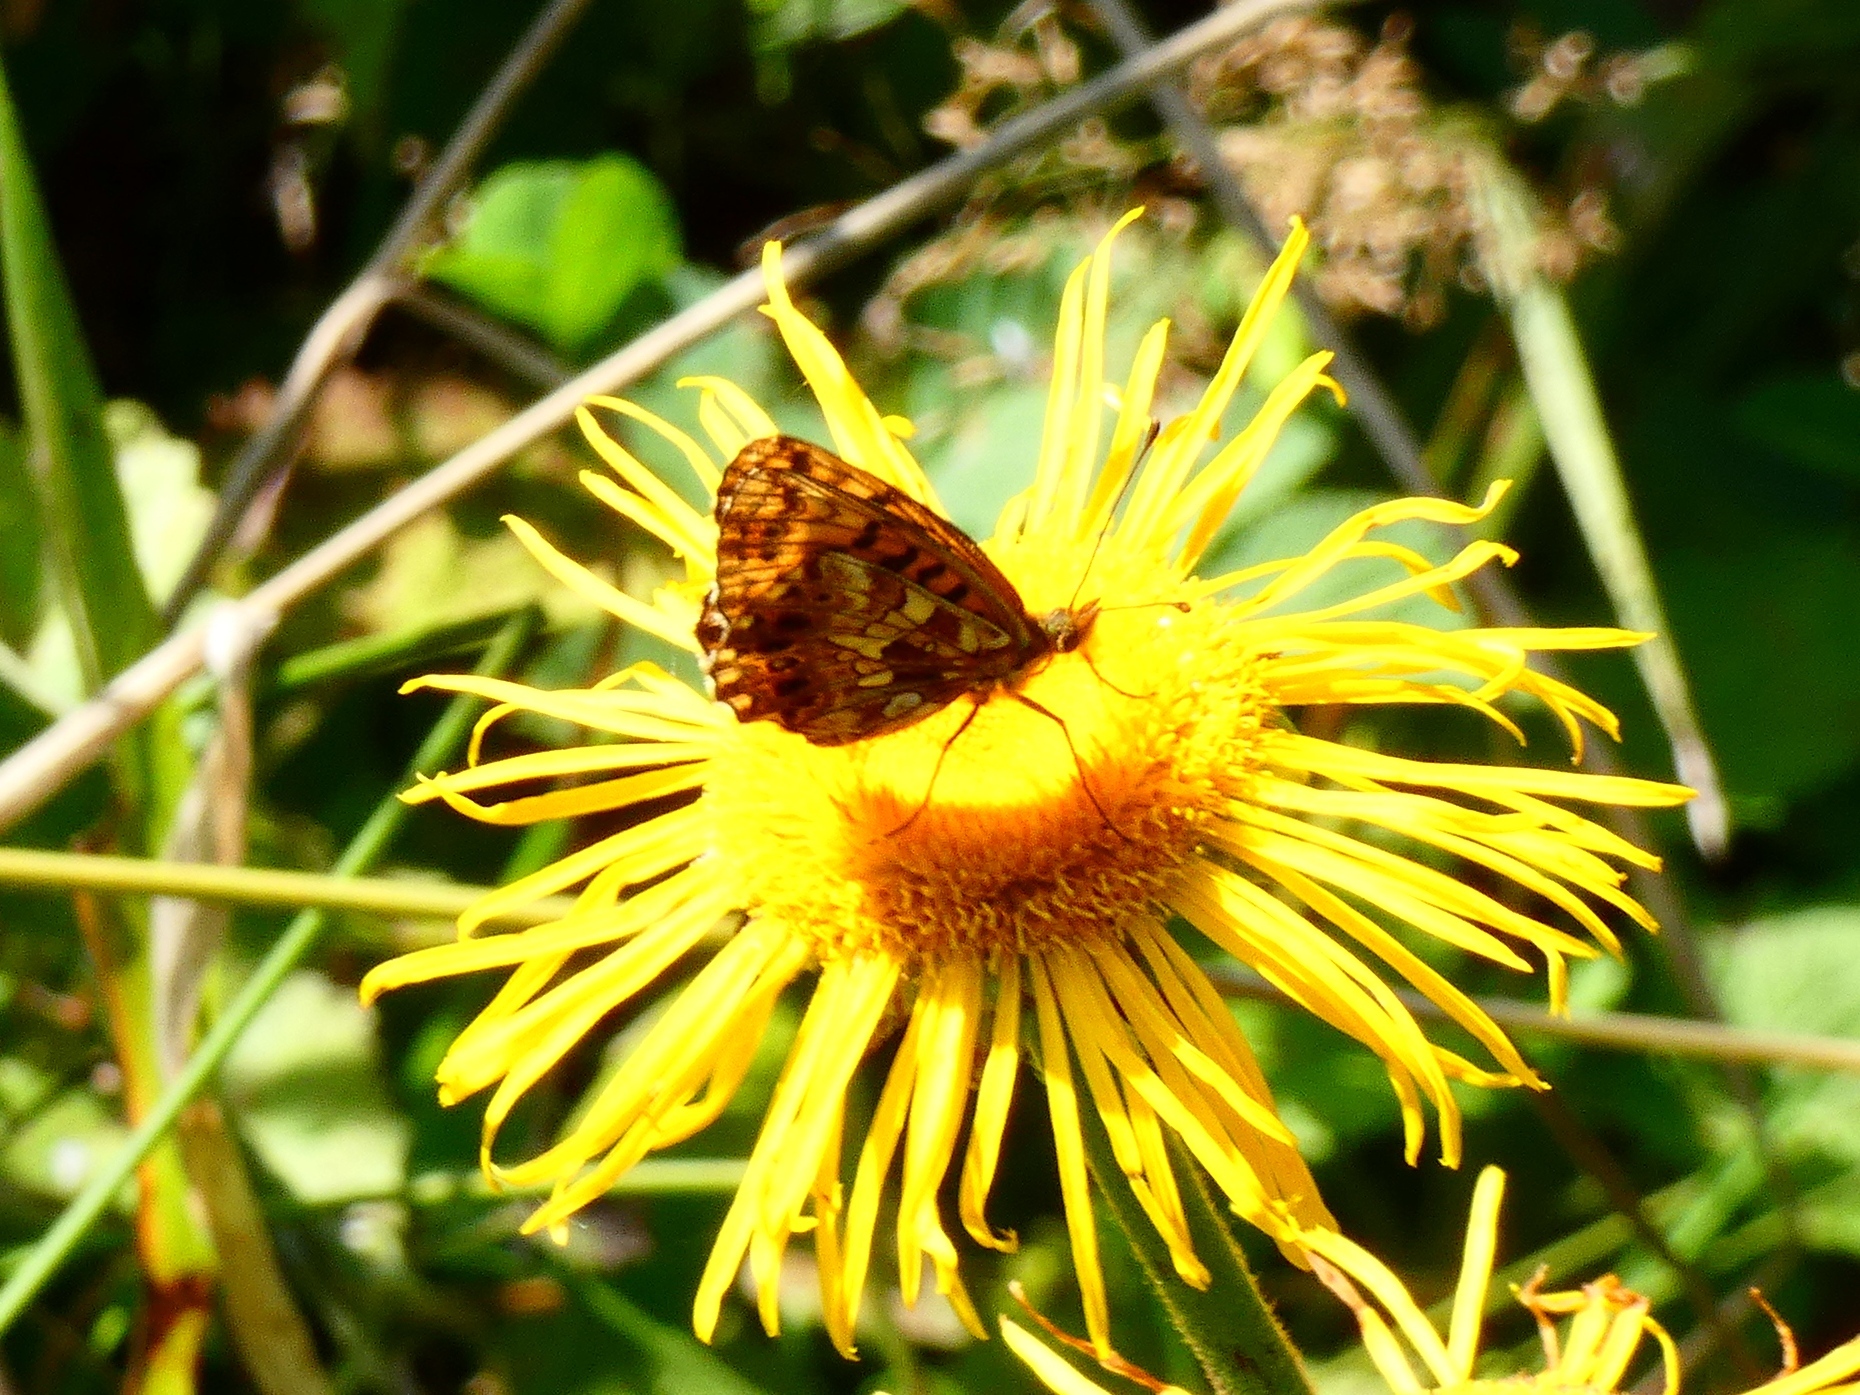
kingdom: Animalia
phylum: Arthropoda
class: Insecta
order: Lepidoptera
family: Nymphalidae
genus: Boloria
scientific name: Boloria dia
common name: Weaver's fritillary
